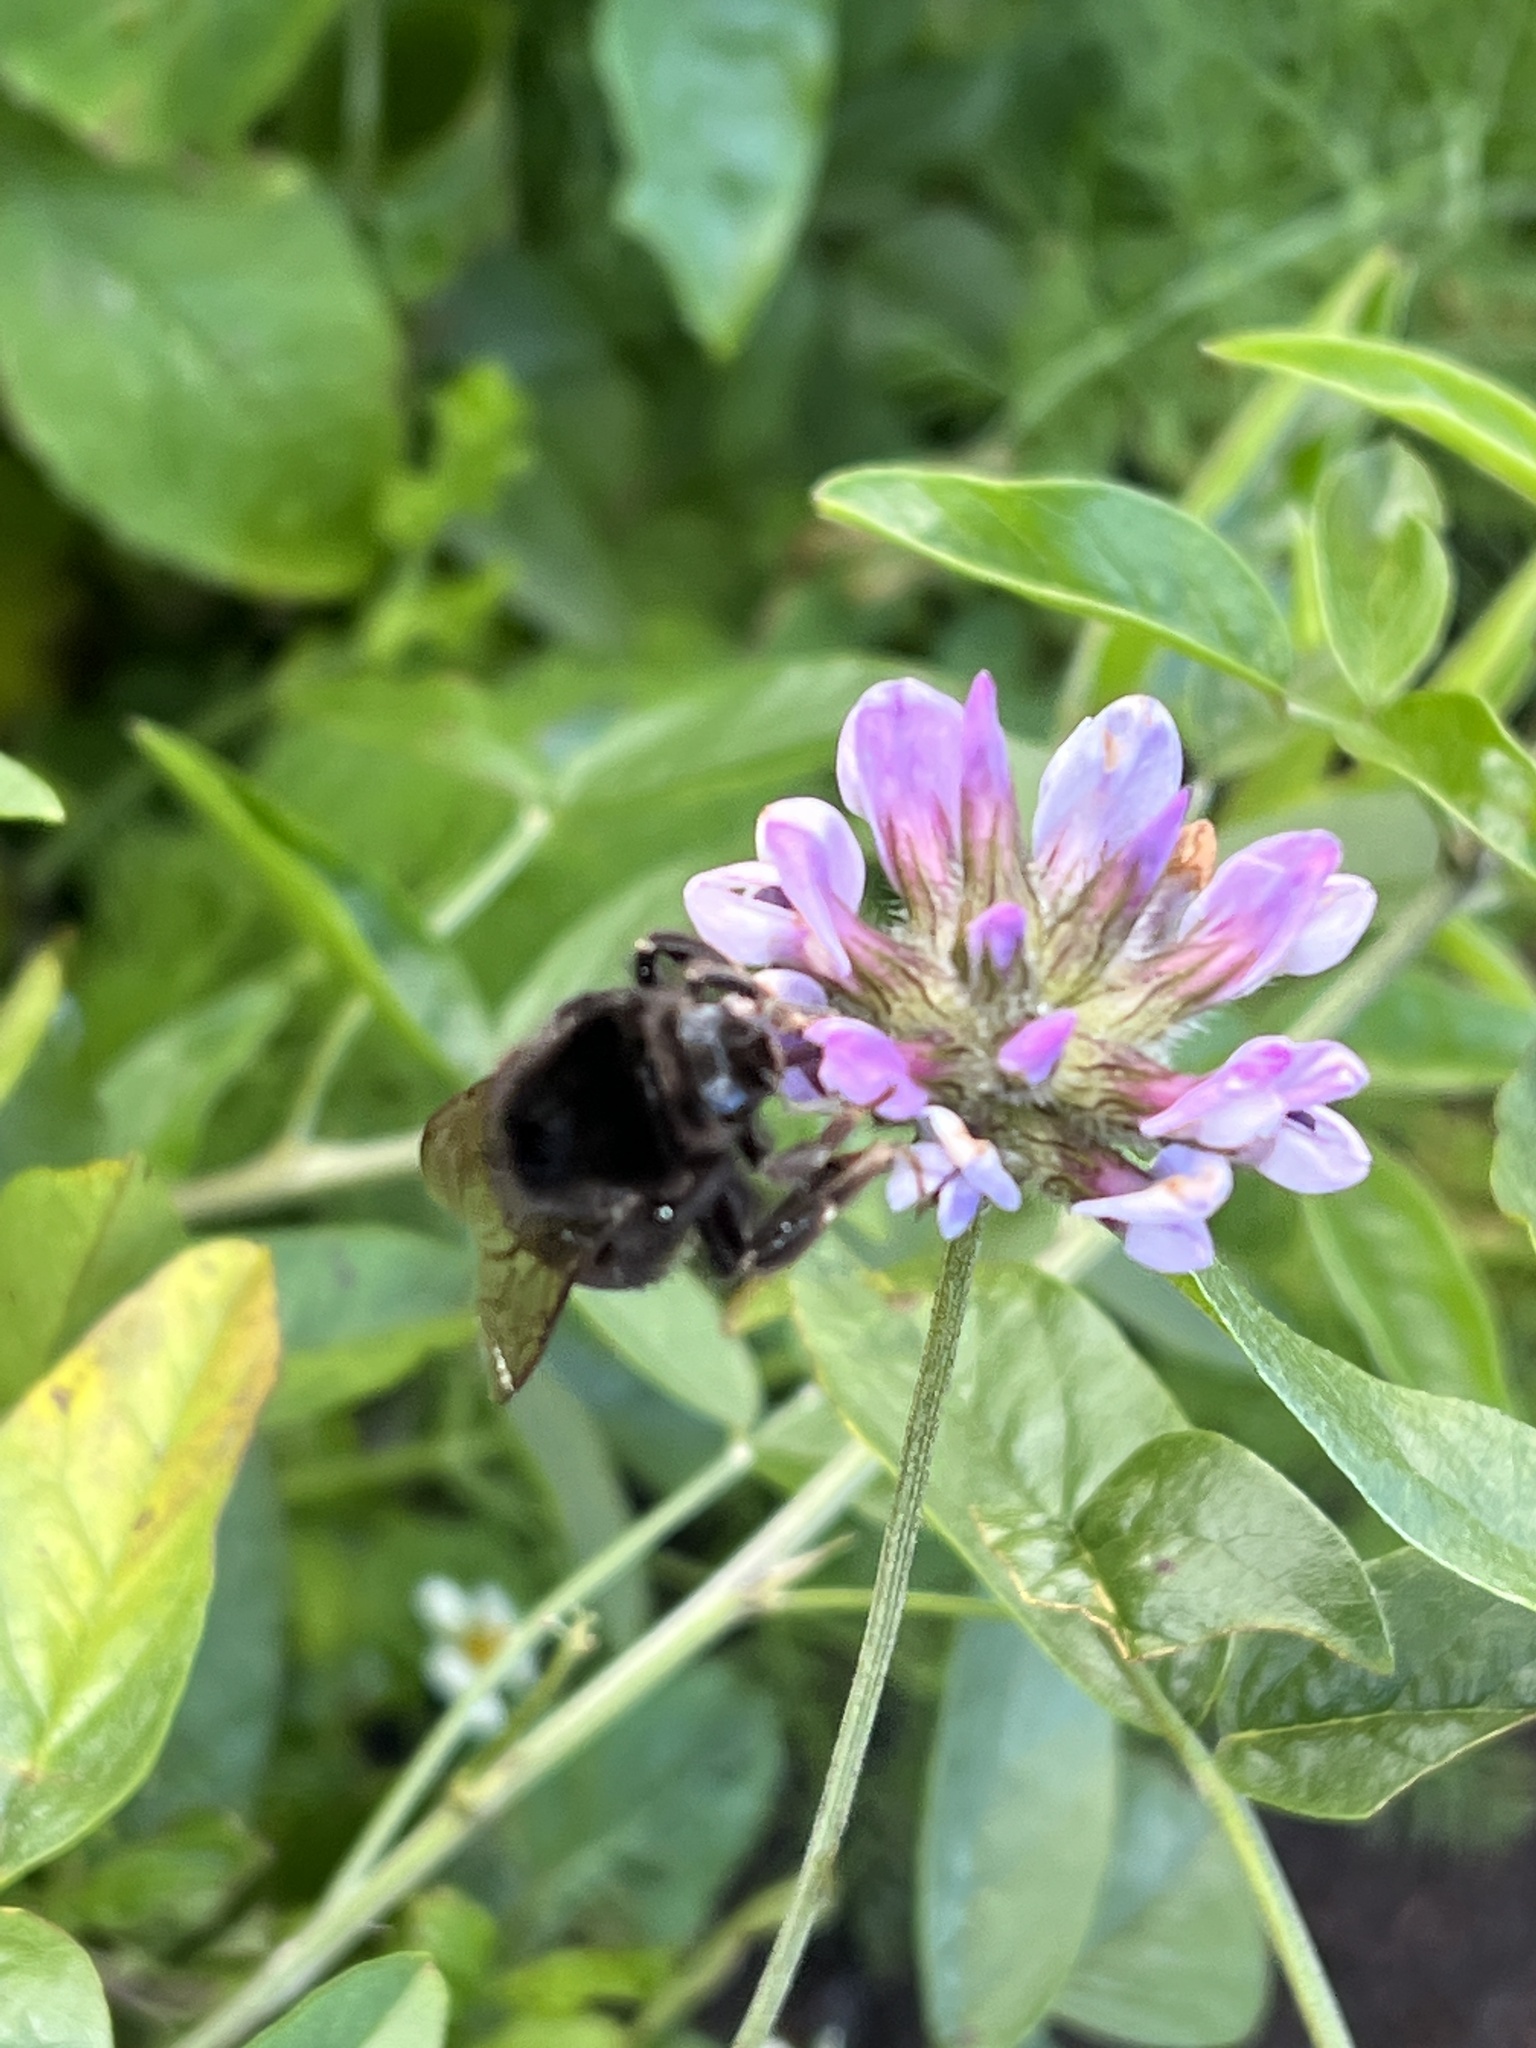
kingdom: Animalia
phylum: Arthropoda
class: Insecta
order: Hymenoptera
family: Apidae
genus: Bombus
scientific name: Bombus terrestris
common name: Buff-tailed bumblebee
